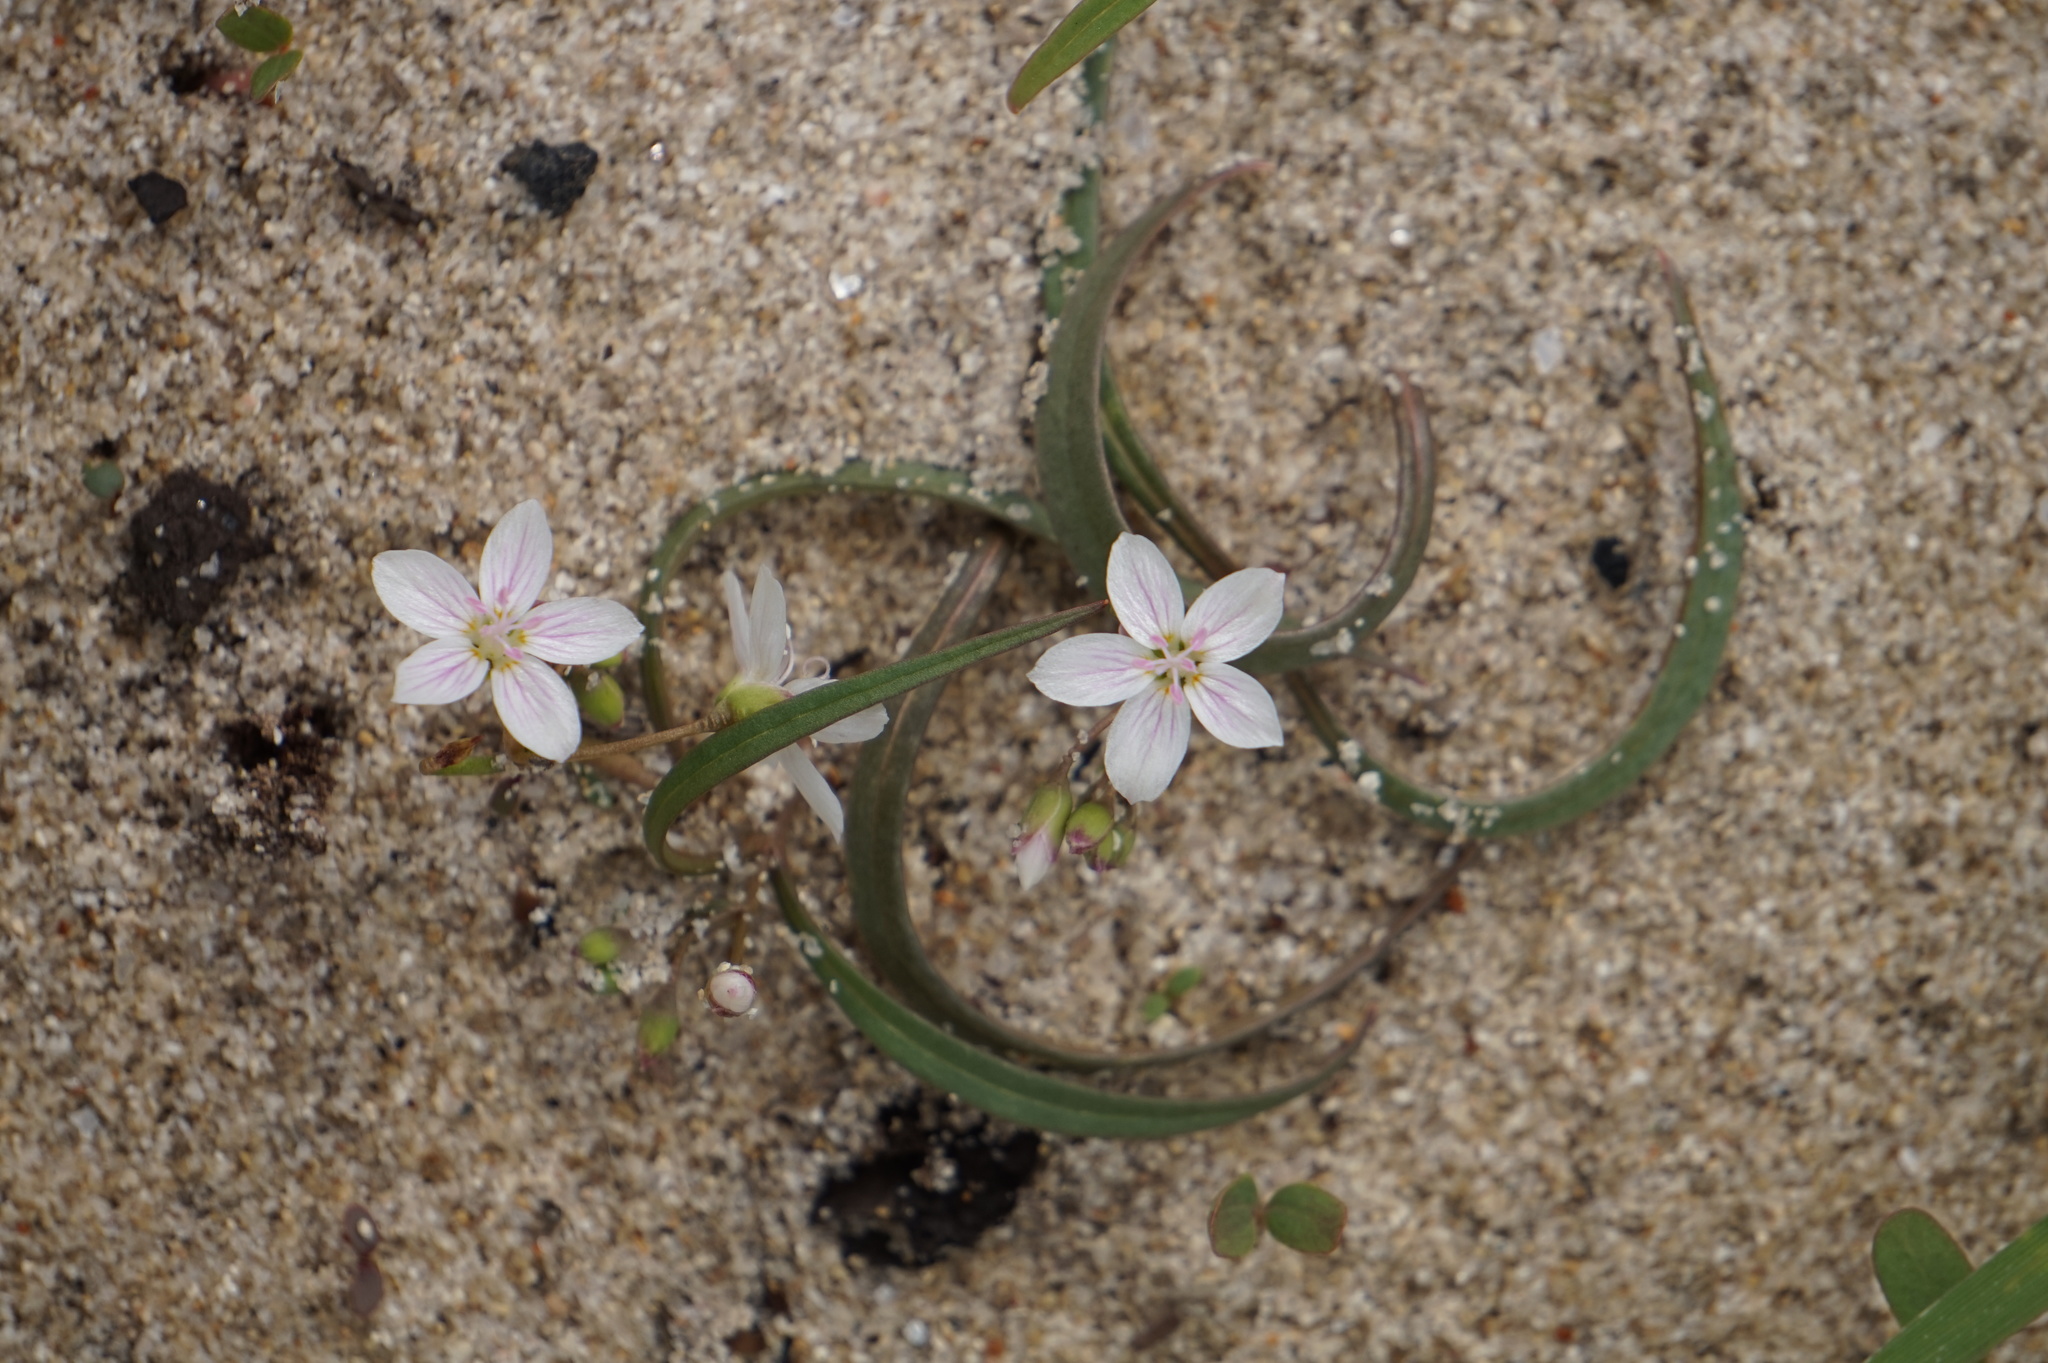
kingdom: Plantae
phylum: Tracheophyta
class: Magnoliopsida
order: Caryophyllales
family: Montiaceae
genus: Claytonia
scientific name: Claytonia virginica
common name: Virginia springbeauty
